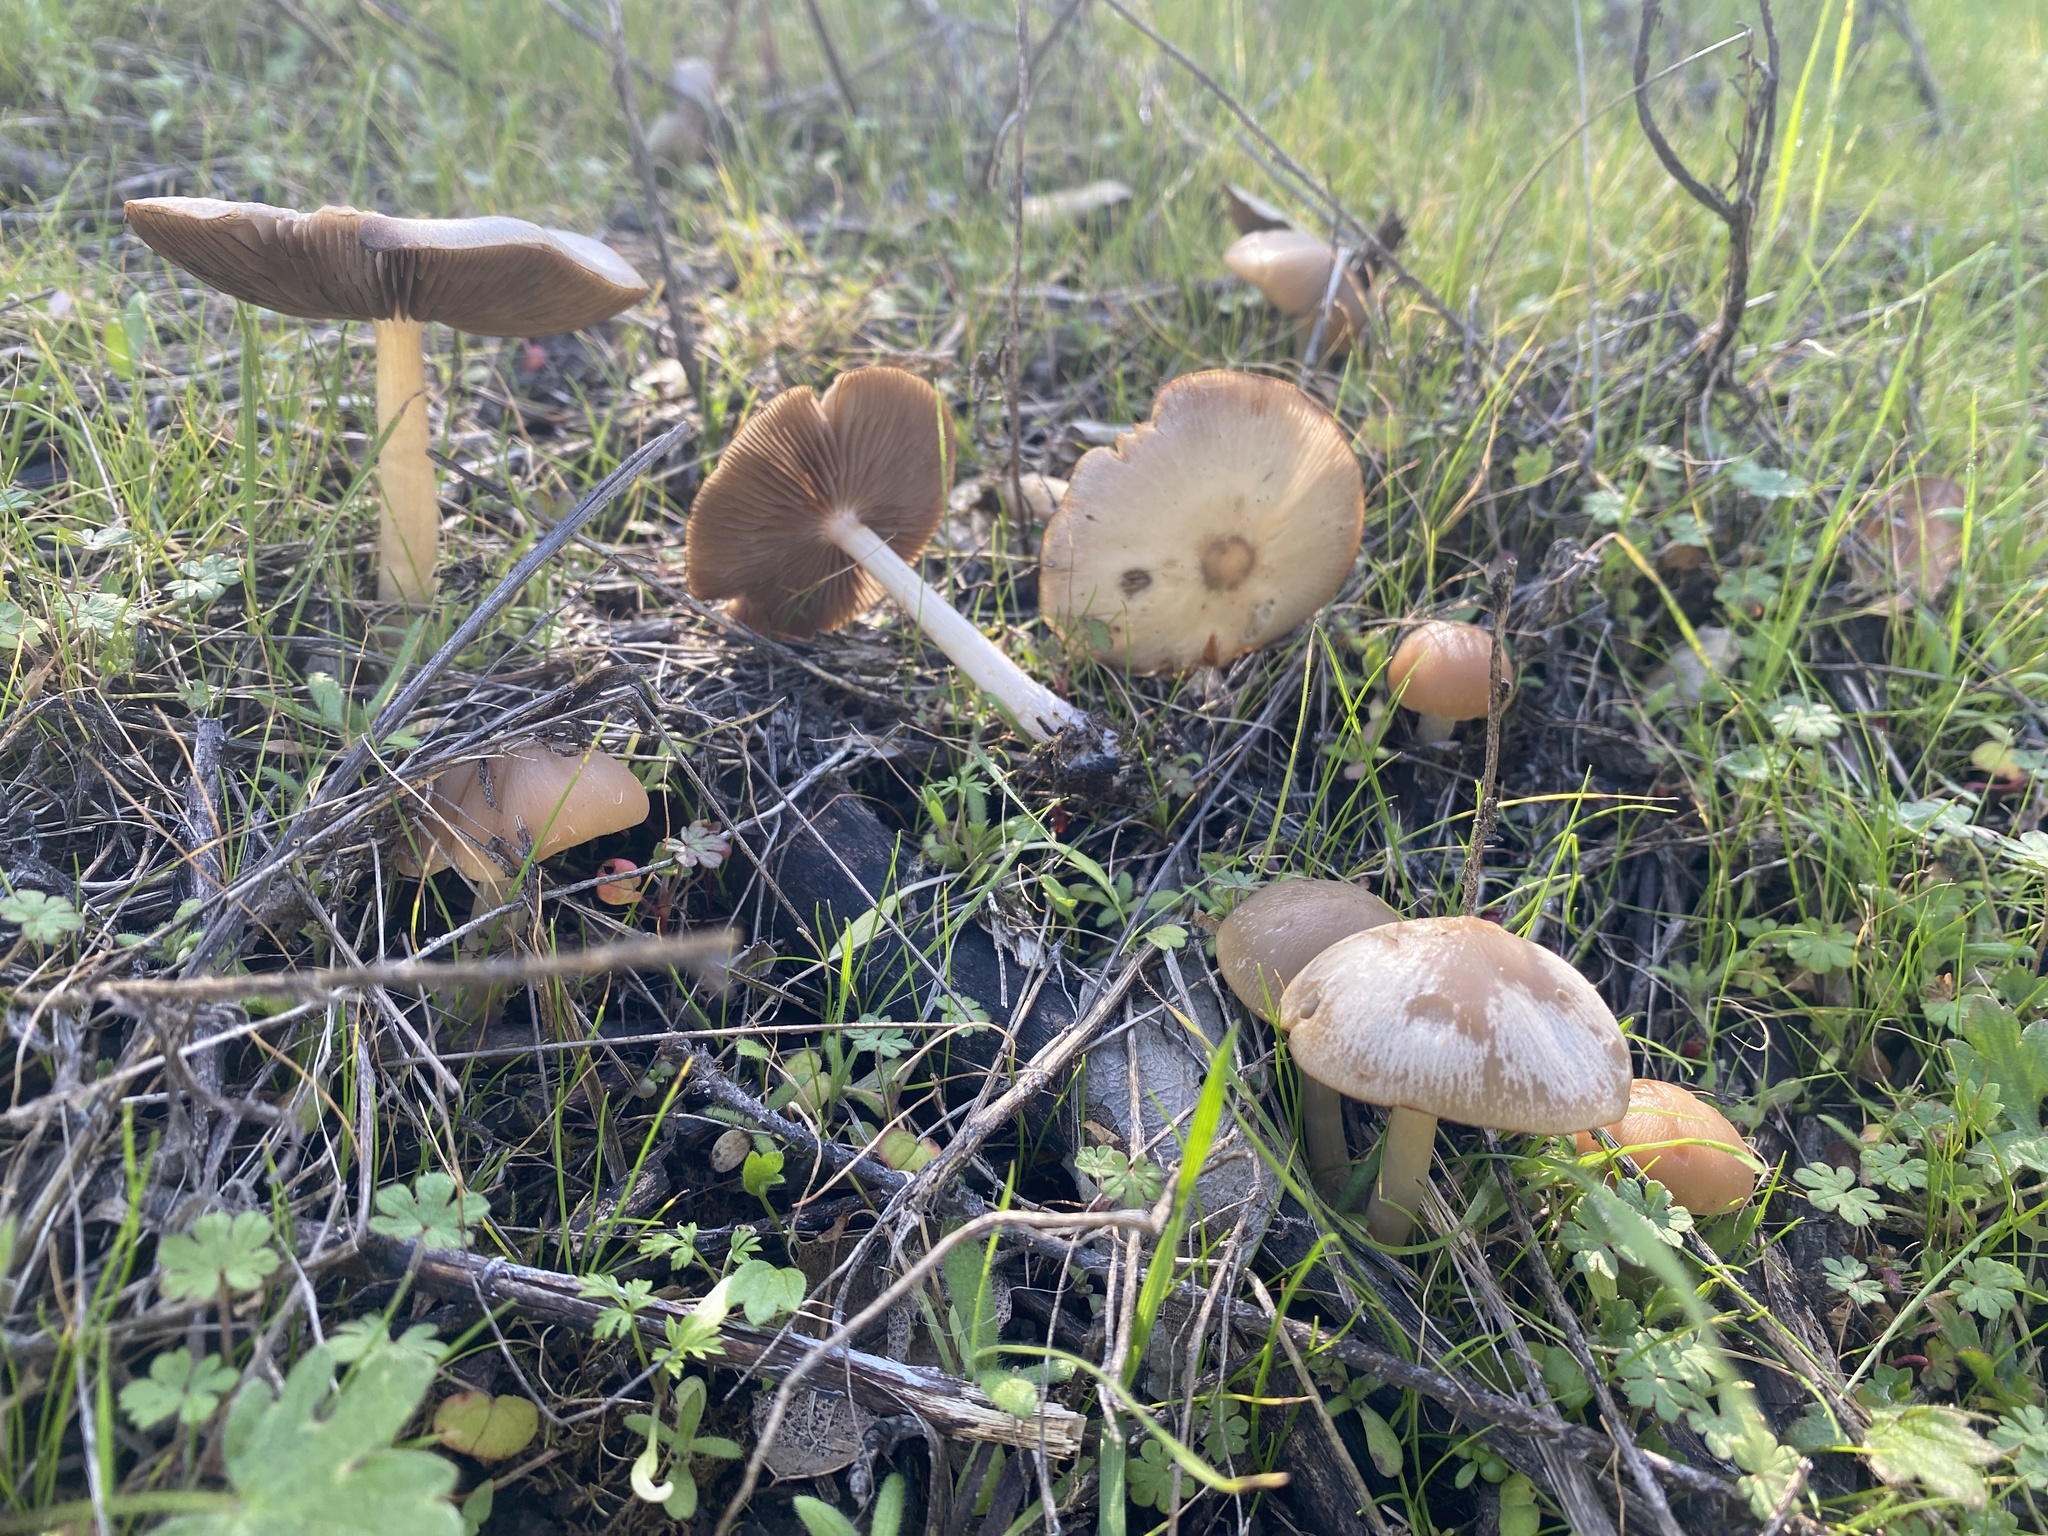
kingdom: Fungi
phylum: Basidiomycota
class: Agaricomycetes
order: Agaricales
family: Psathyrellaceae
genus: Psathyrella
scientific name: Psathyrella praetenuis
